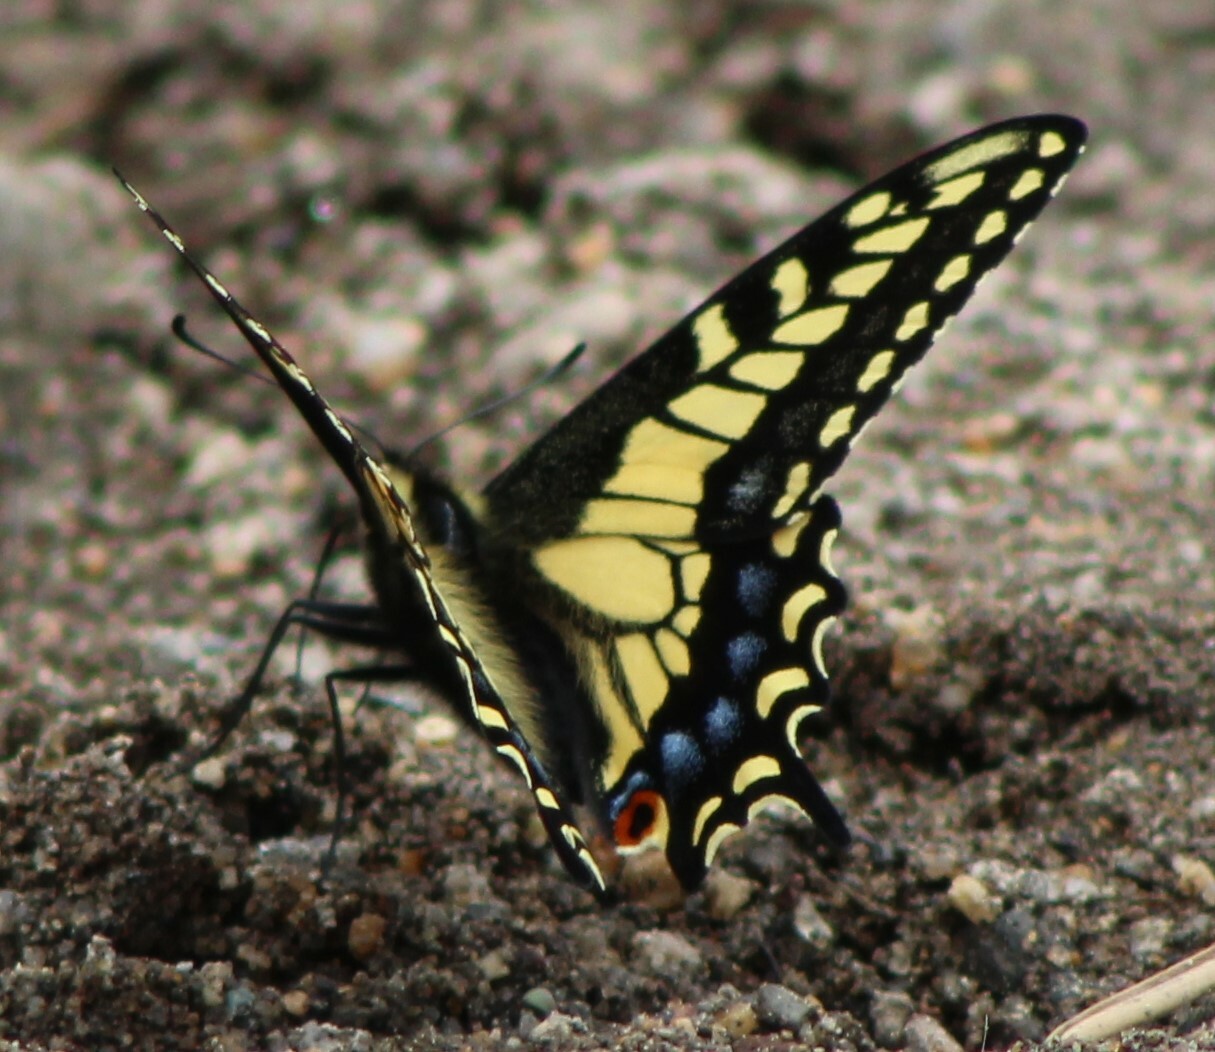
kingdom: Animalia
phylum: Arthropoda
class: Insecta
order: Lepidoptera
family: Papilionidae
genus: Papilio
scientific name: Papilio zelicaon
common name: Anise swallowtail
